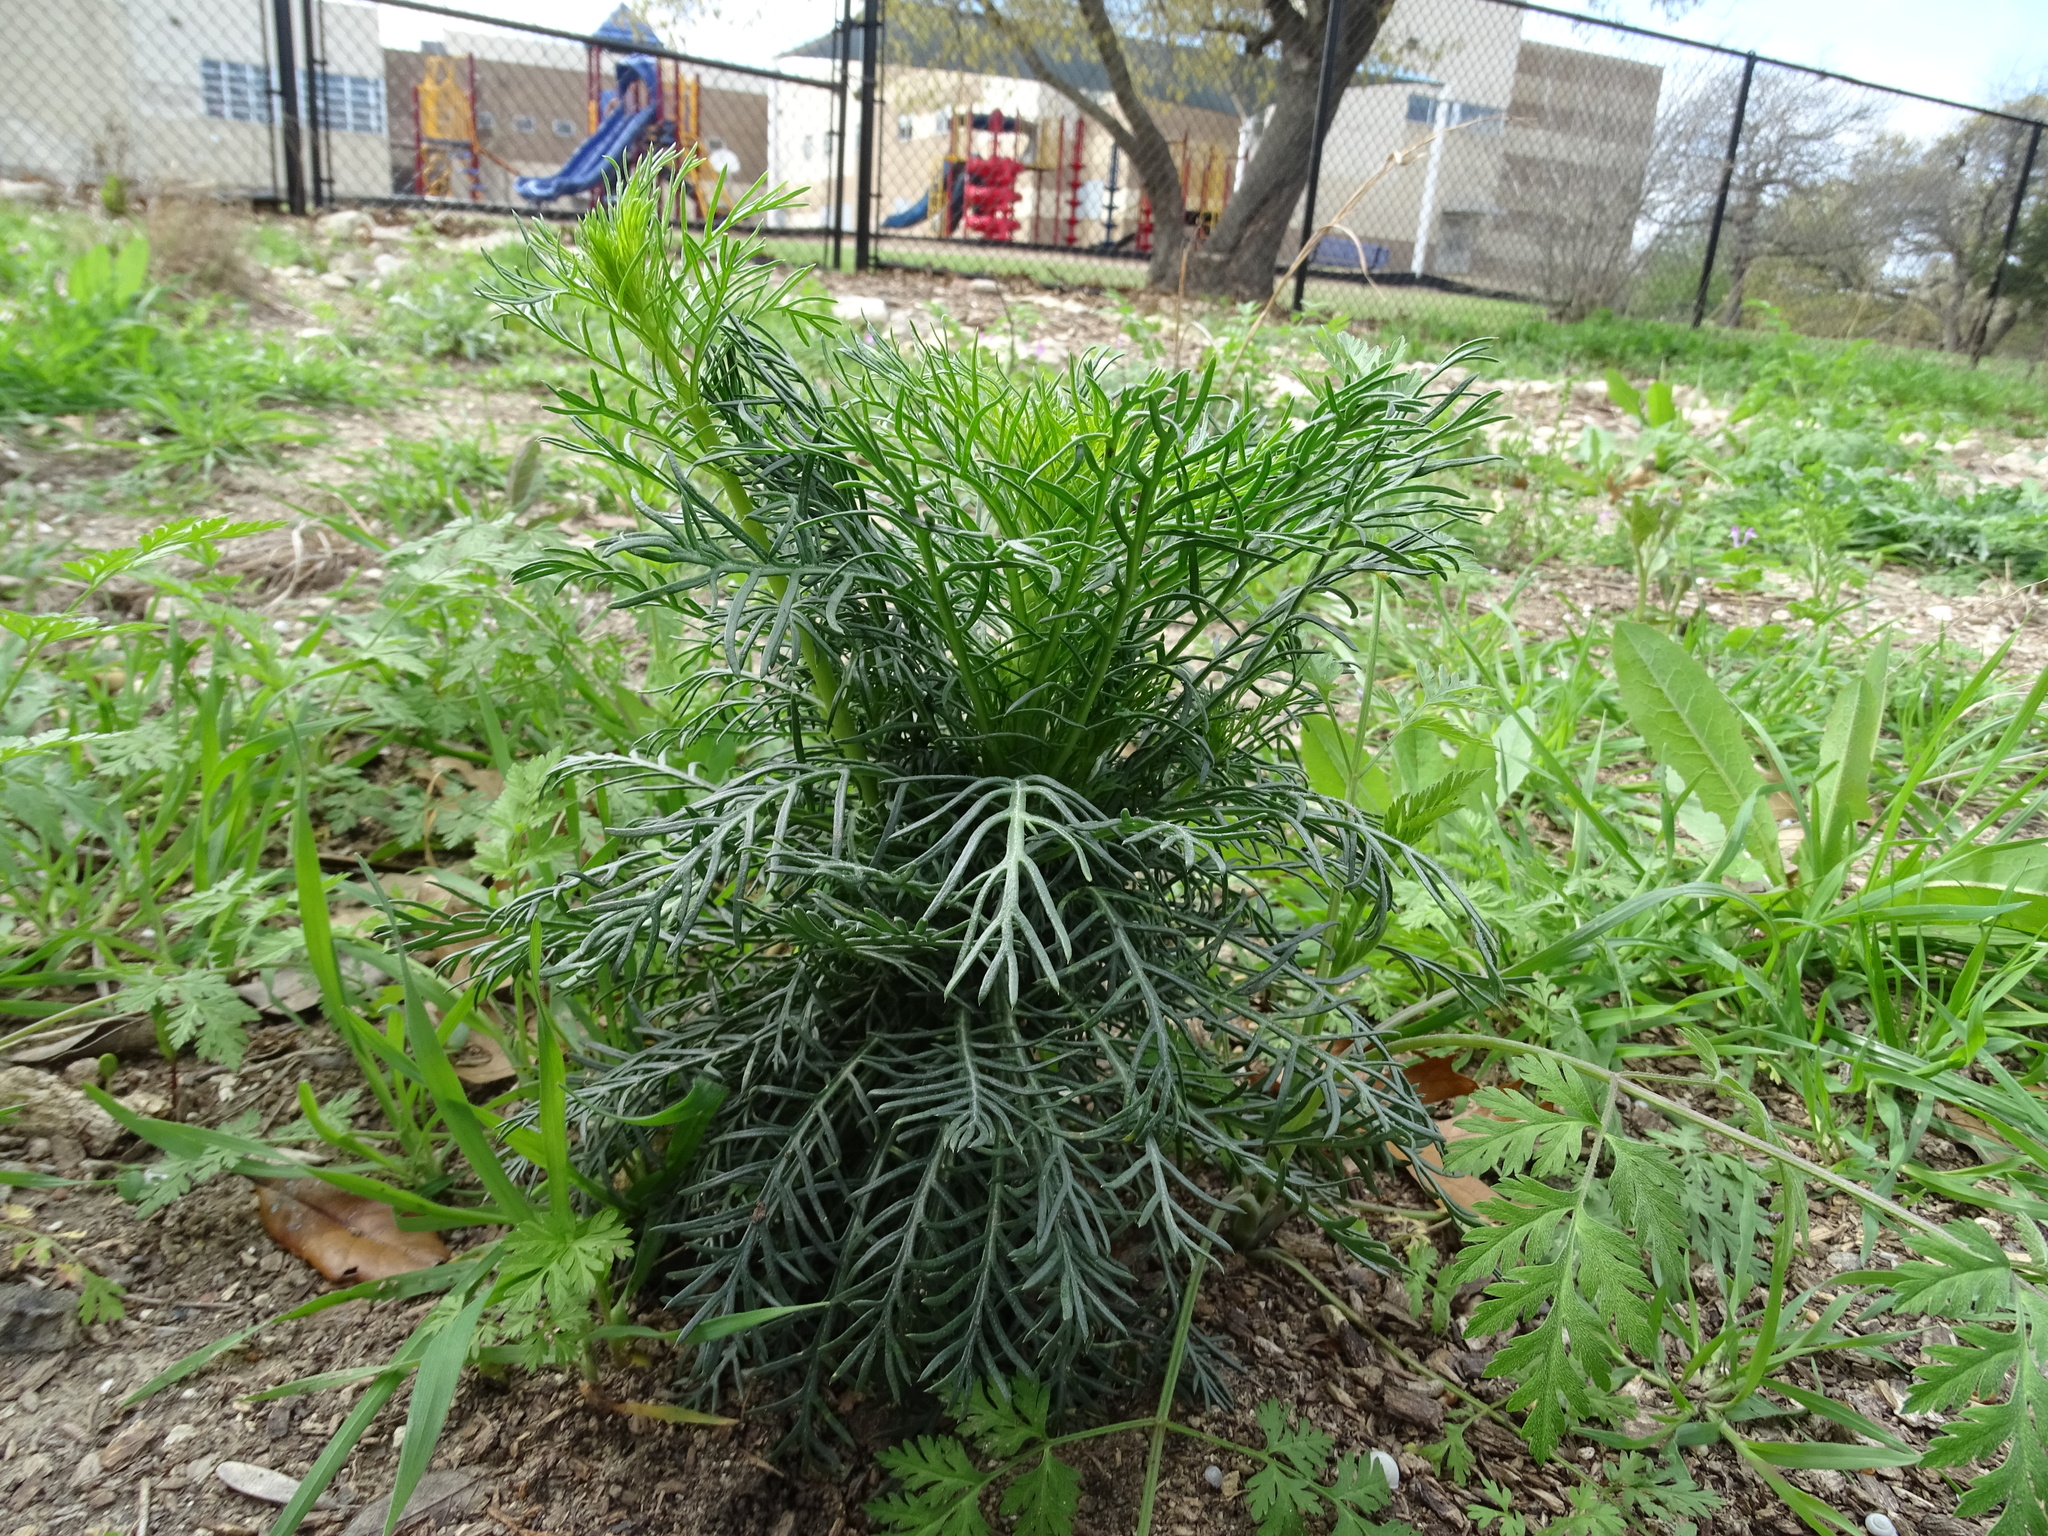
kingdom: Plantae
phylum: Tracheophyta
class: Magnoliopsida
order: Ericales
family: Polemoniaceae
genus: Ipomopsis
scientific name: Ipomopsis rubra
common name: Skyrocket
